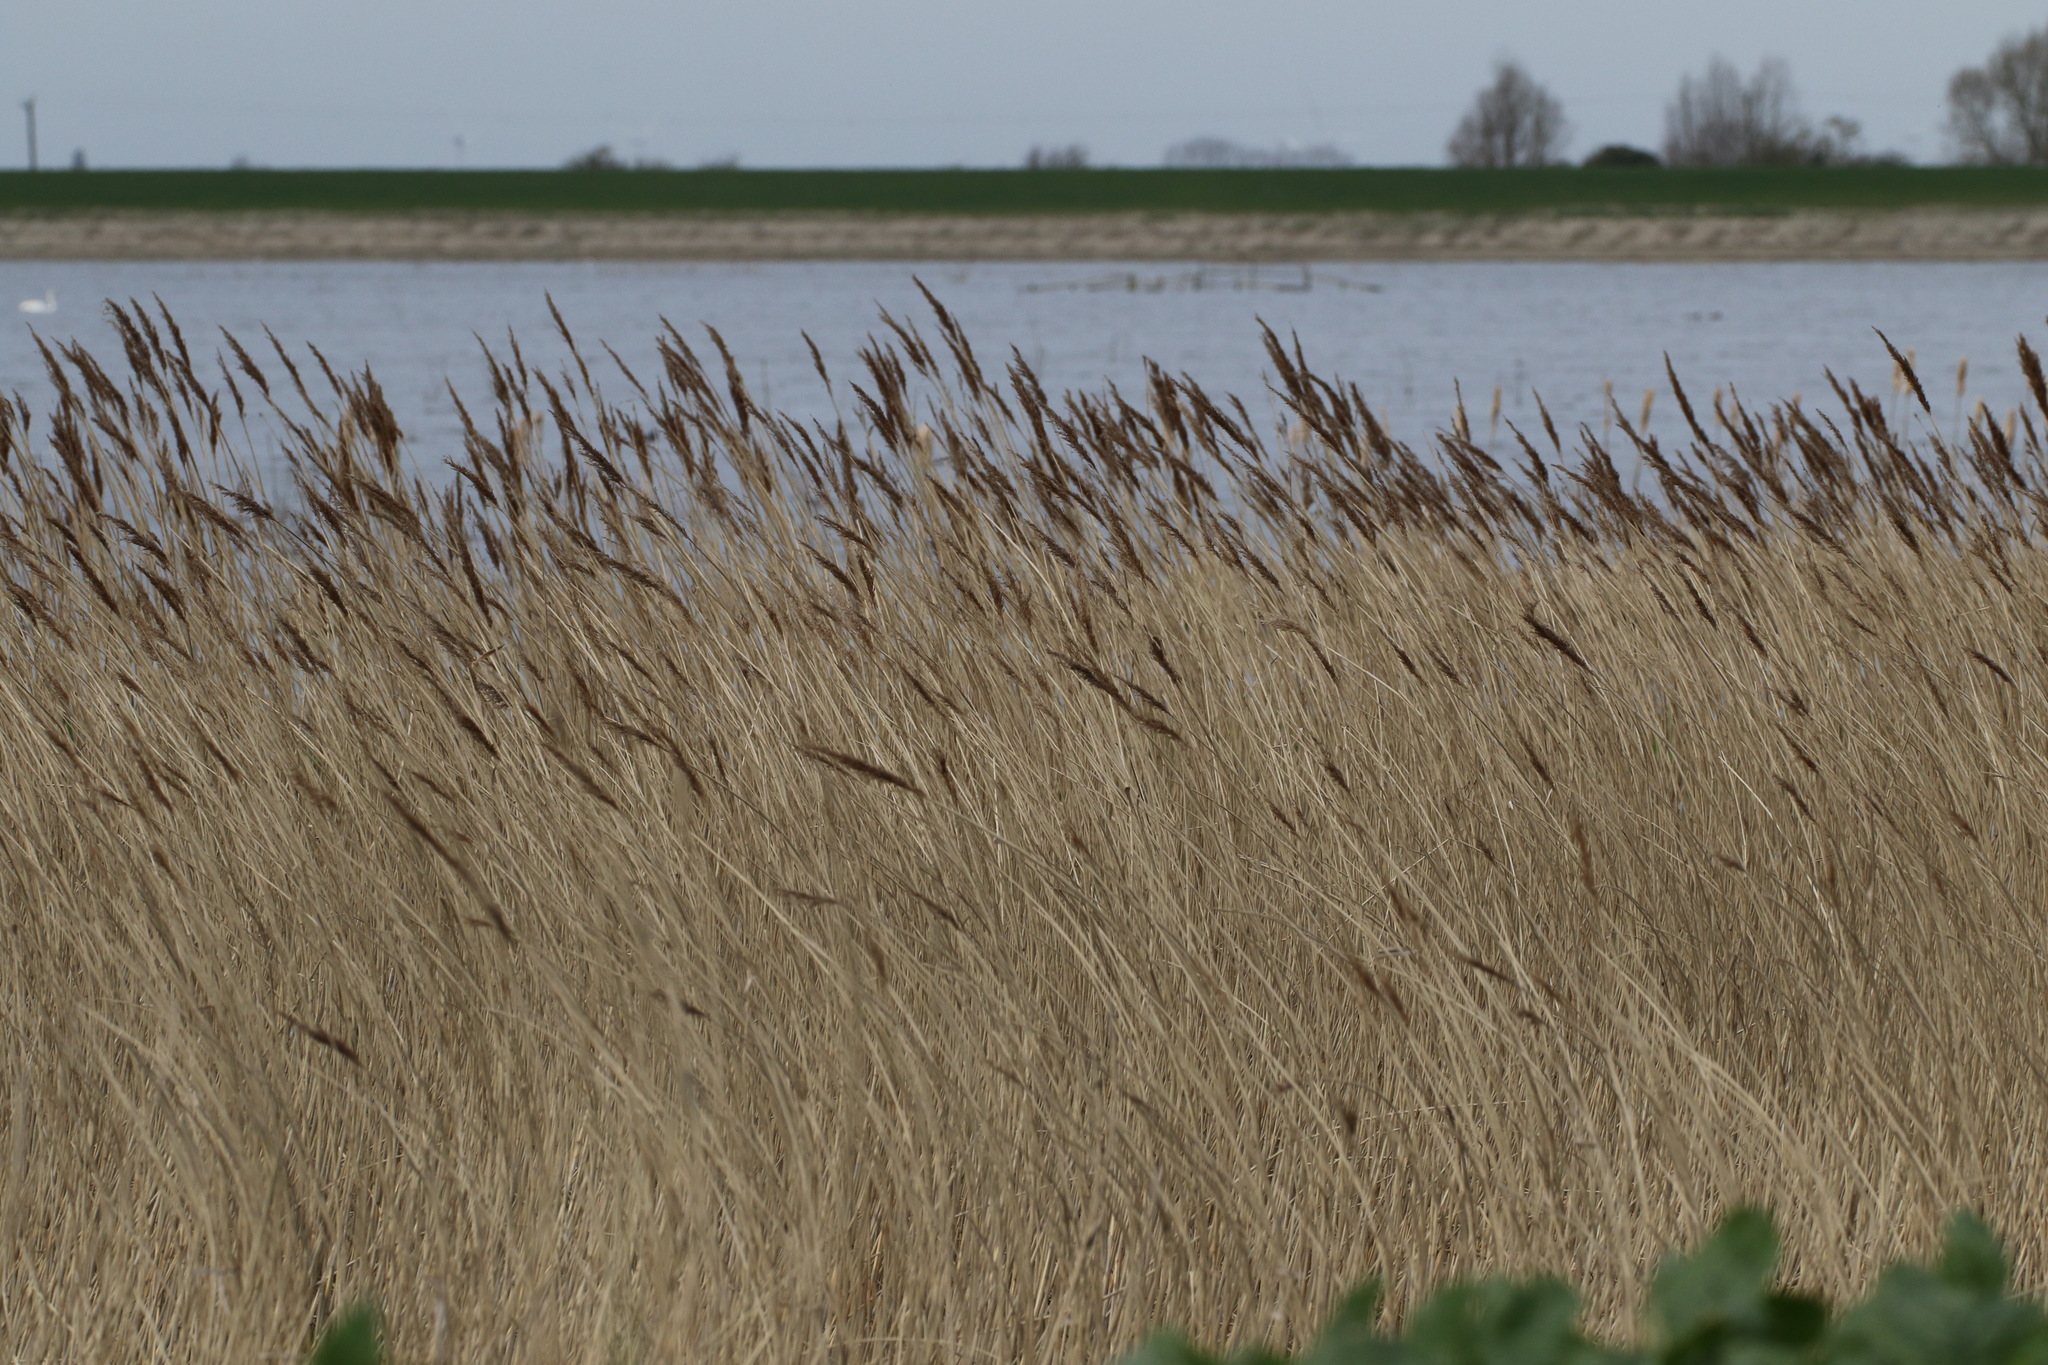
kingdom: Plantae
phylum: Tracheophyta
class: Liliopsida
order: Poales
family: Poaceae
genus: Phragmites
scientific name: Phragmites australis
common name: Common reed
